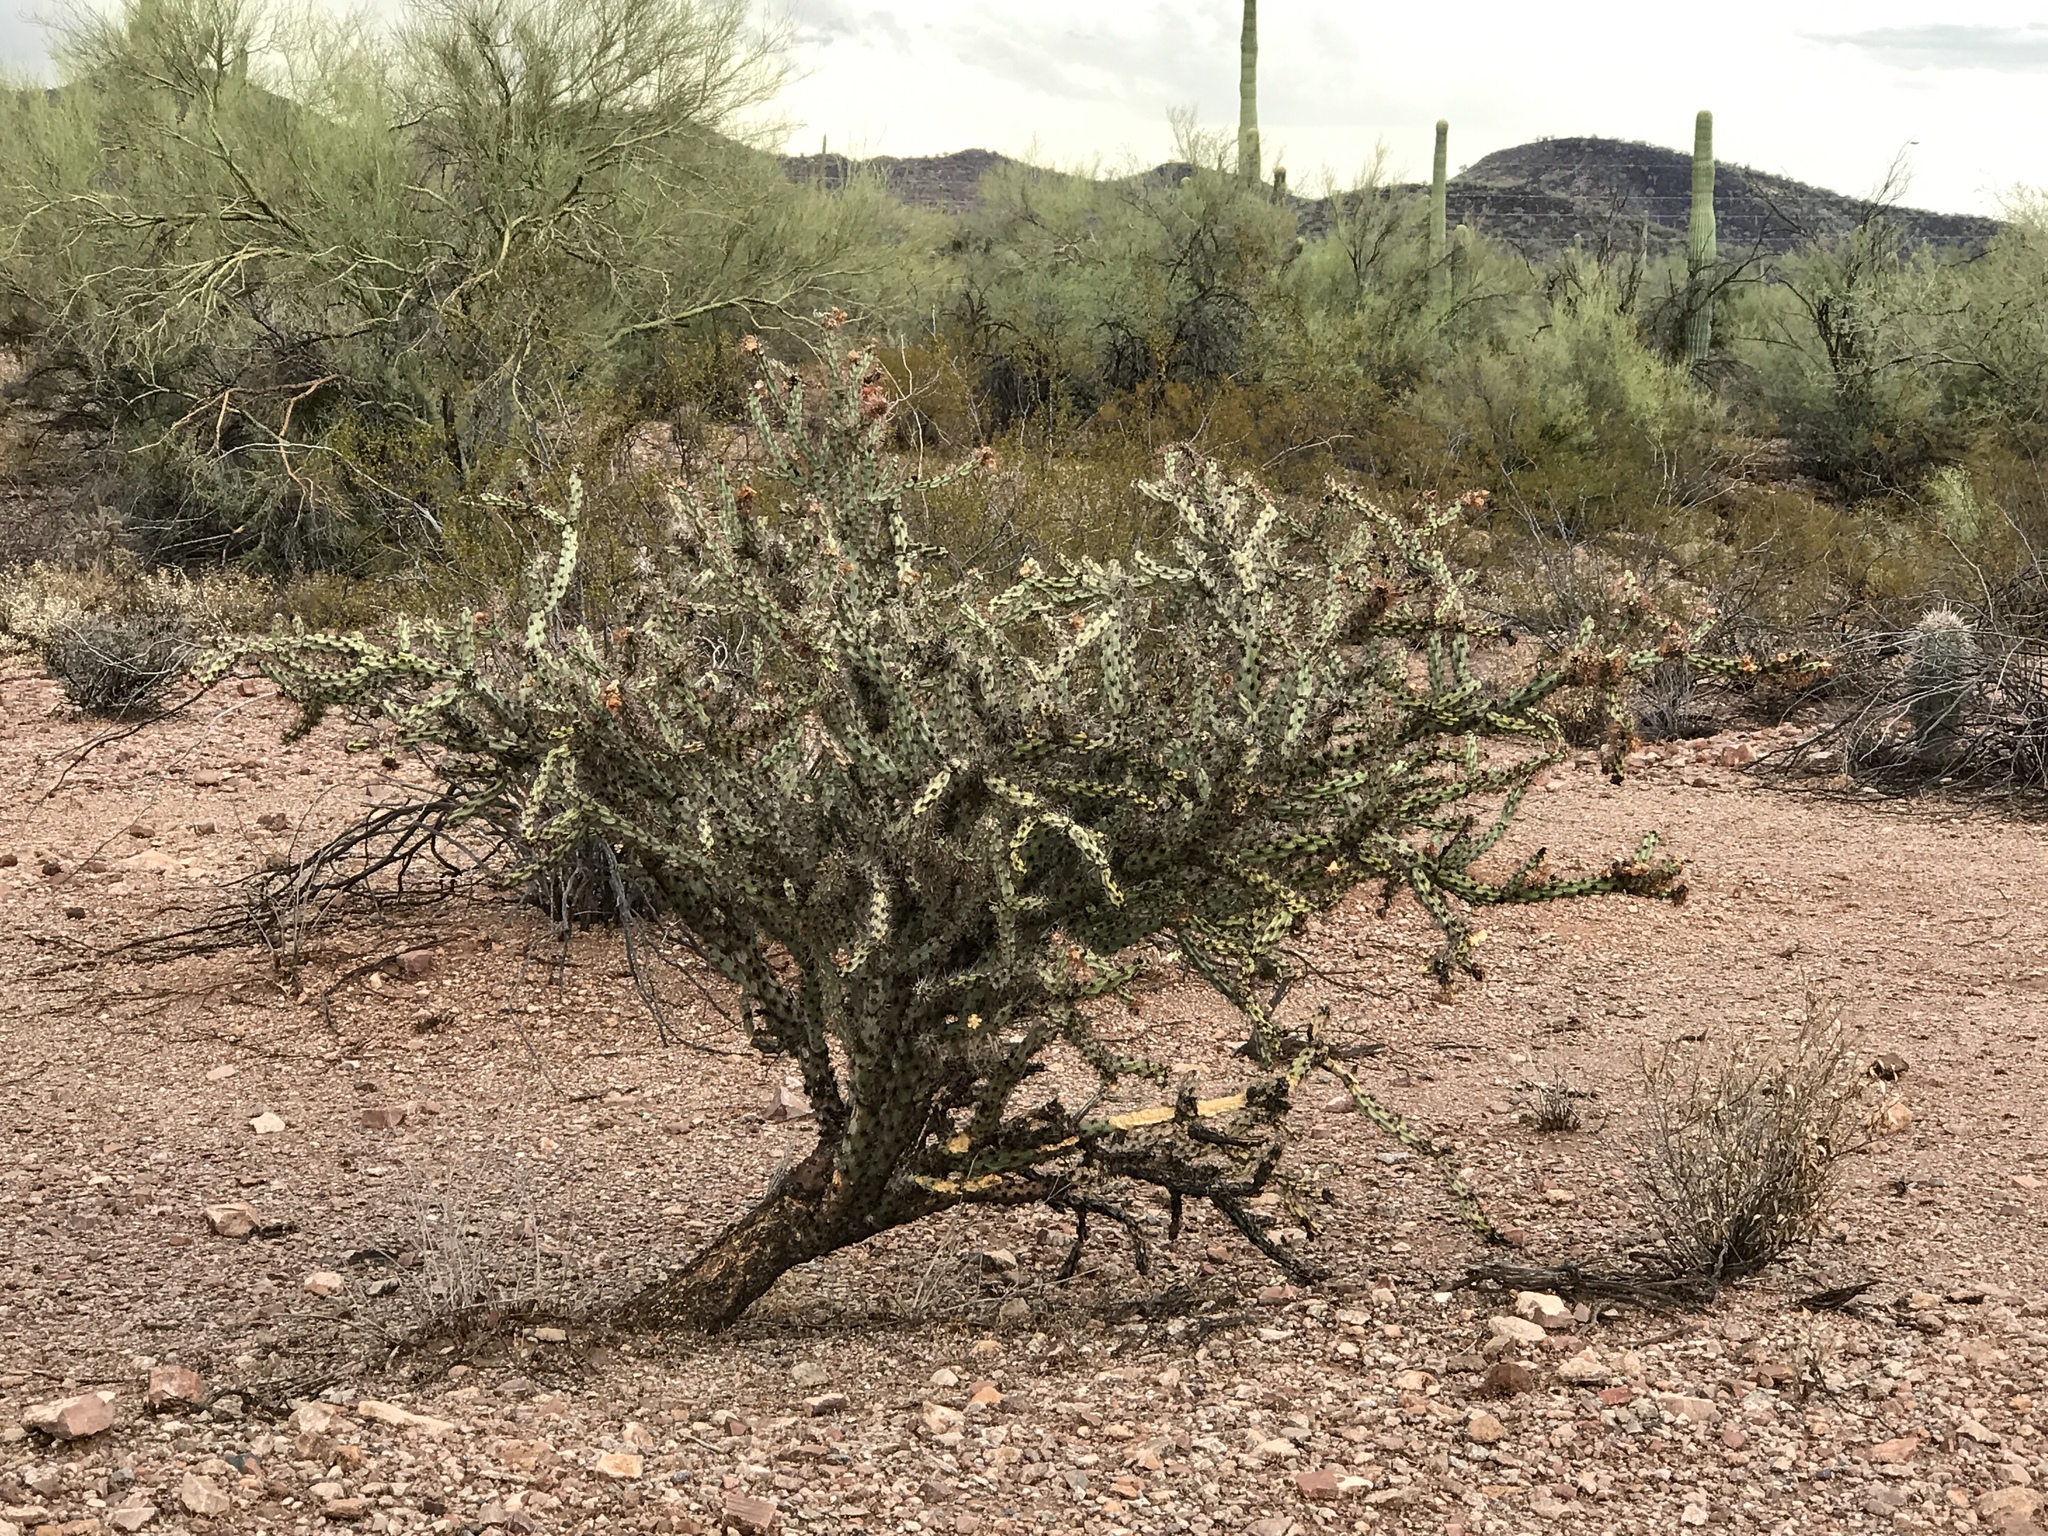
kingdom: Plantae
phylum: Tracheophyta
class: Magnoliopsida
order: Caryophyllales
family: Cactaceae
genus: Cylindropuntia
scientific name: Cylindropuntia acanthocarpa
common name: Buckhorn cholla
